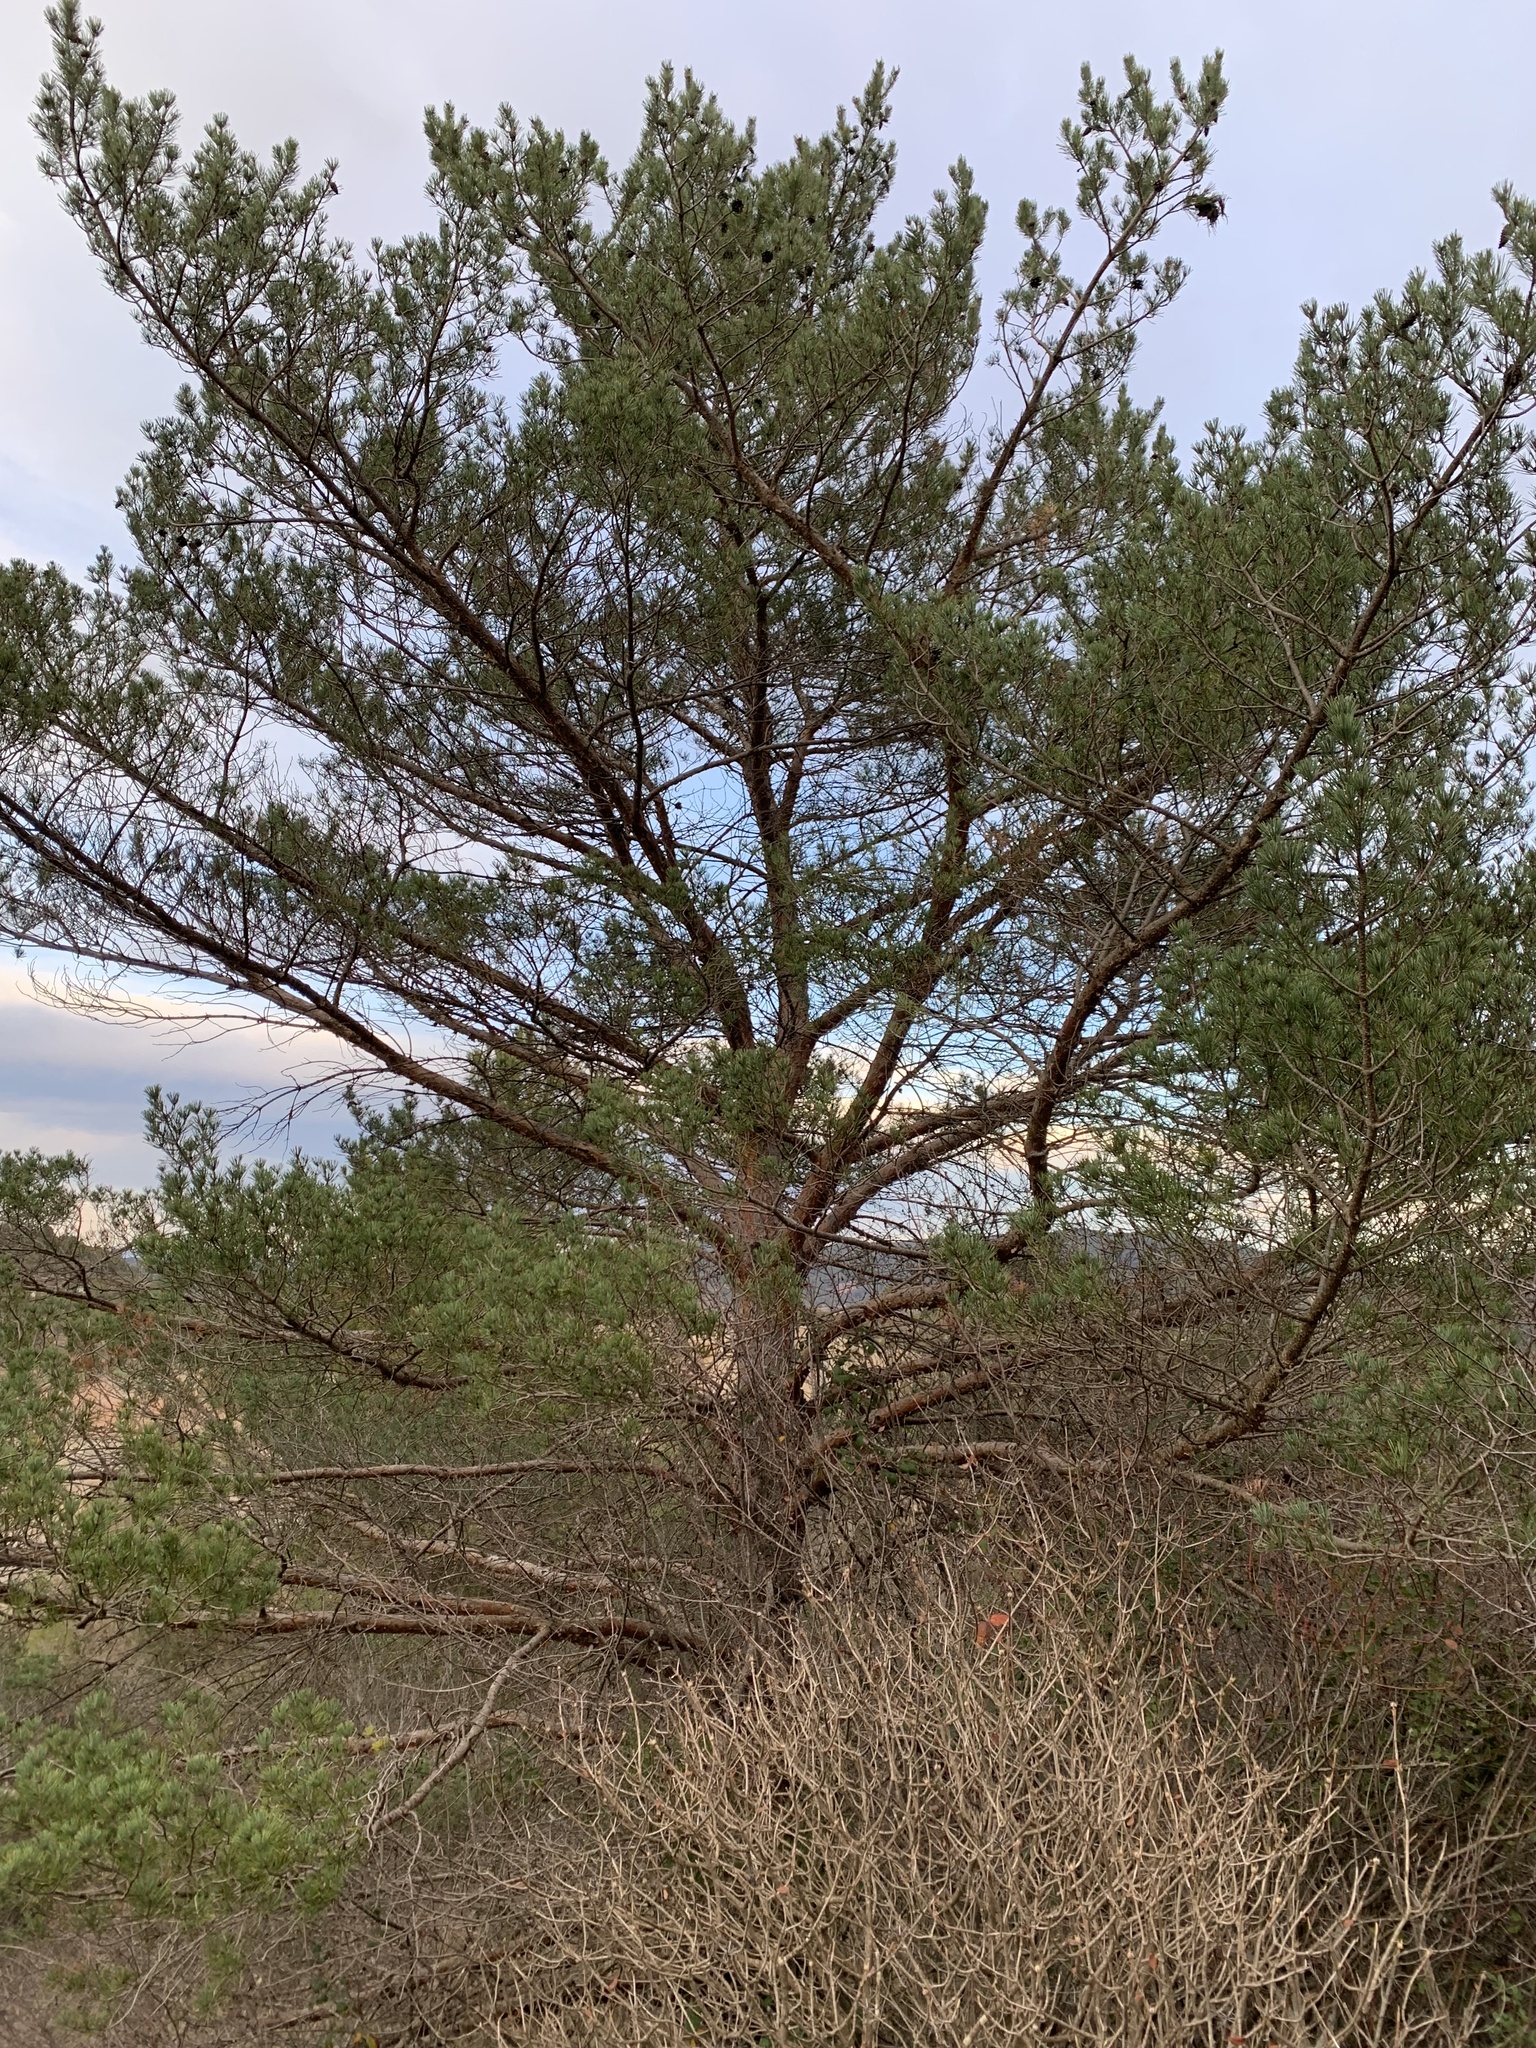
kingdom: Plantae
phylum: Tracheophyta
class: Pinopsida
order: Pinales
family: Pinaceae
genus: Pinus
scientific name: Pinus sylvestris
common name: Scots pine
